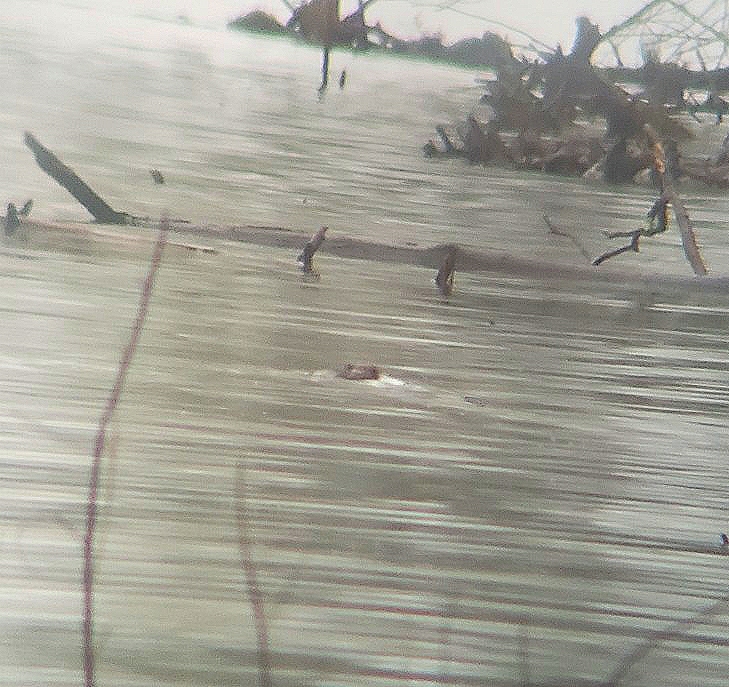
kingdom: Animalia
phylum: Chordata
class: Mammalia
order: Rodentia
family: Castoridae
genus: Castor
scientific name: Castor canadensis
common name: American beaver
